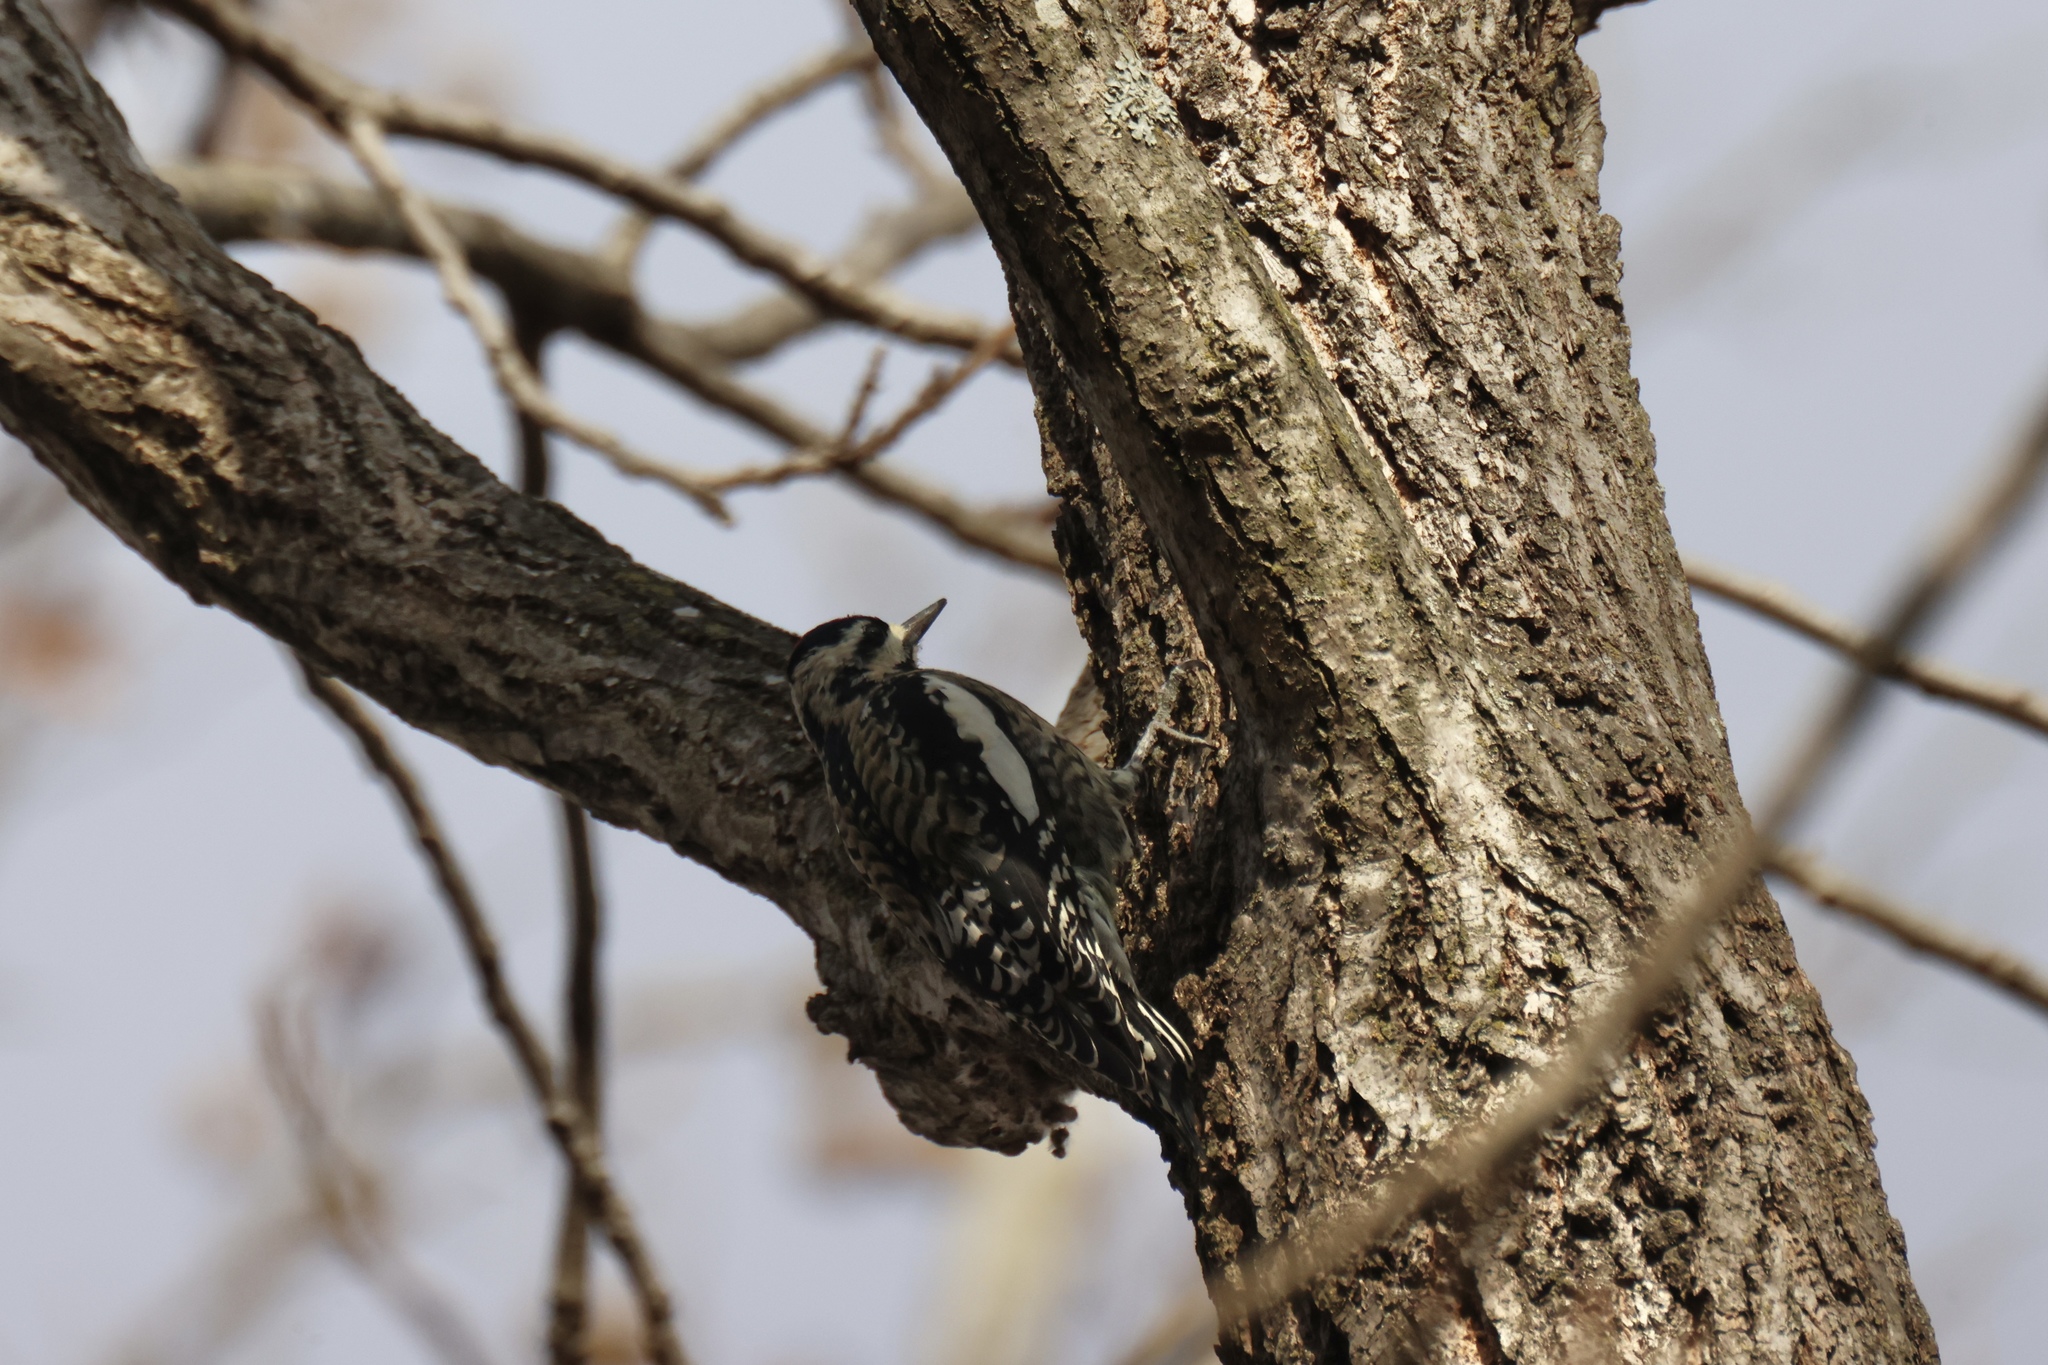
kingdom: Animalia
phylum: Chordata
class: Aves
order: Piciformes
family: Picidae
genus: Sphyrapicus
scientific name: Sphyrapicus varius
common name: Yellow-bellied sapsucker
